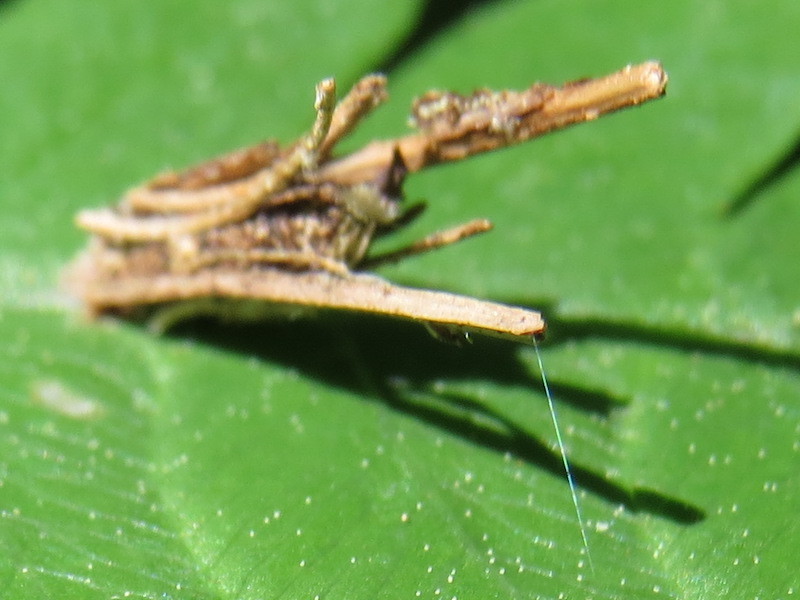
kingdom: Animalia
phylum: Arthropoda
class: Insecta
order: Lepidoptera
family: Psychidae
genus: Psyche
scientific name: Psyche casta
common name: Common sweep
